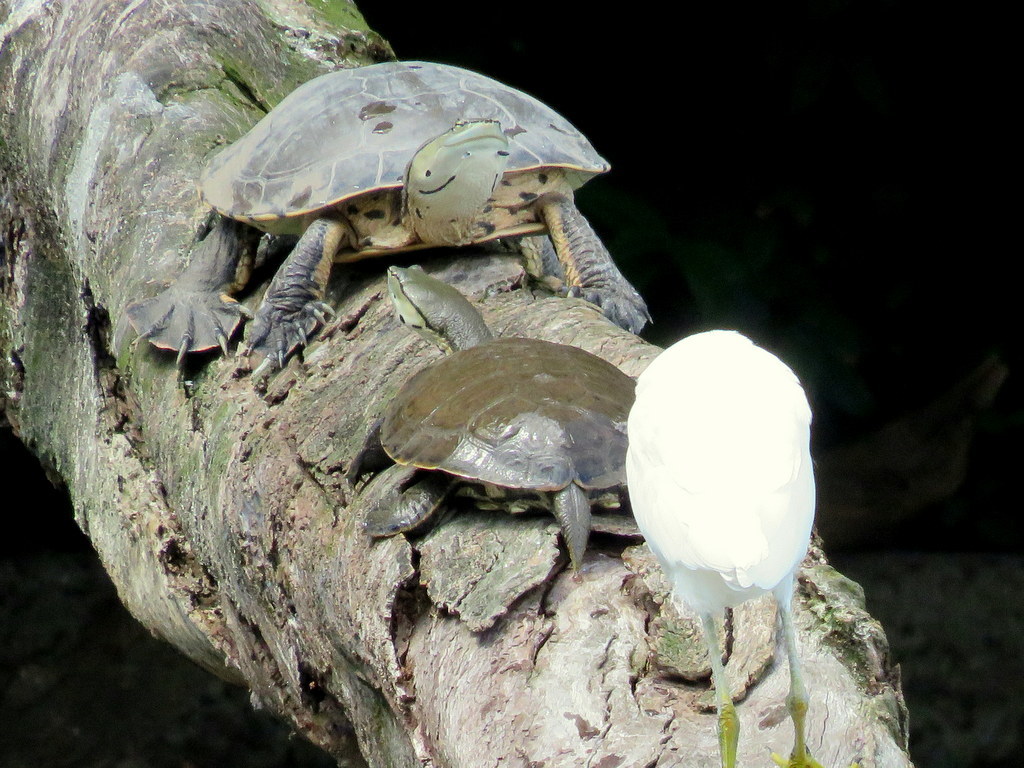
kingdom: Animalia
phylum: Chordata
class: Testudines
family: Chelidae
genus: Phrynops
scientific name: Phrynops hilarii
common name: Side-necked turtle of saint hillaire
